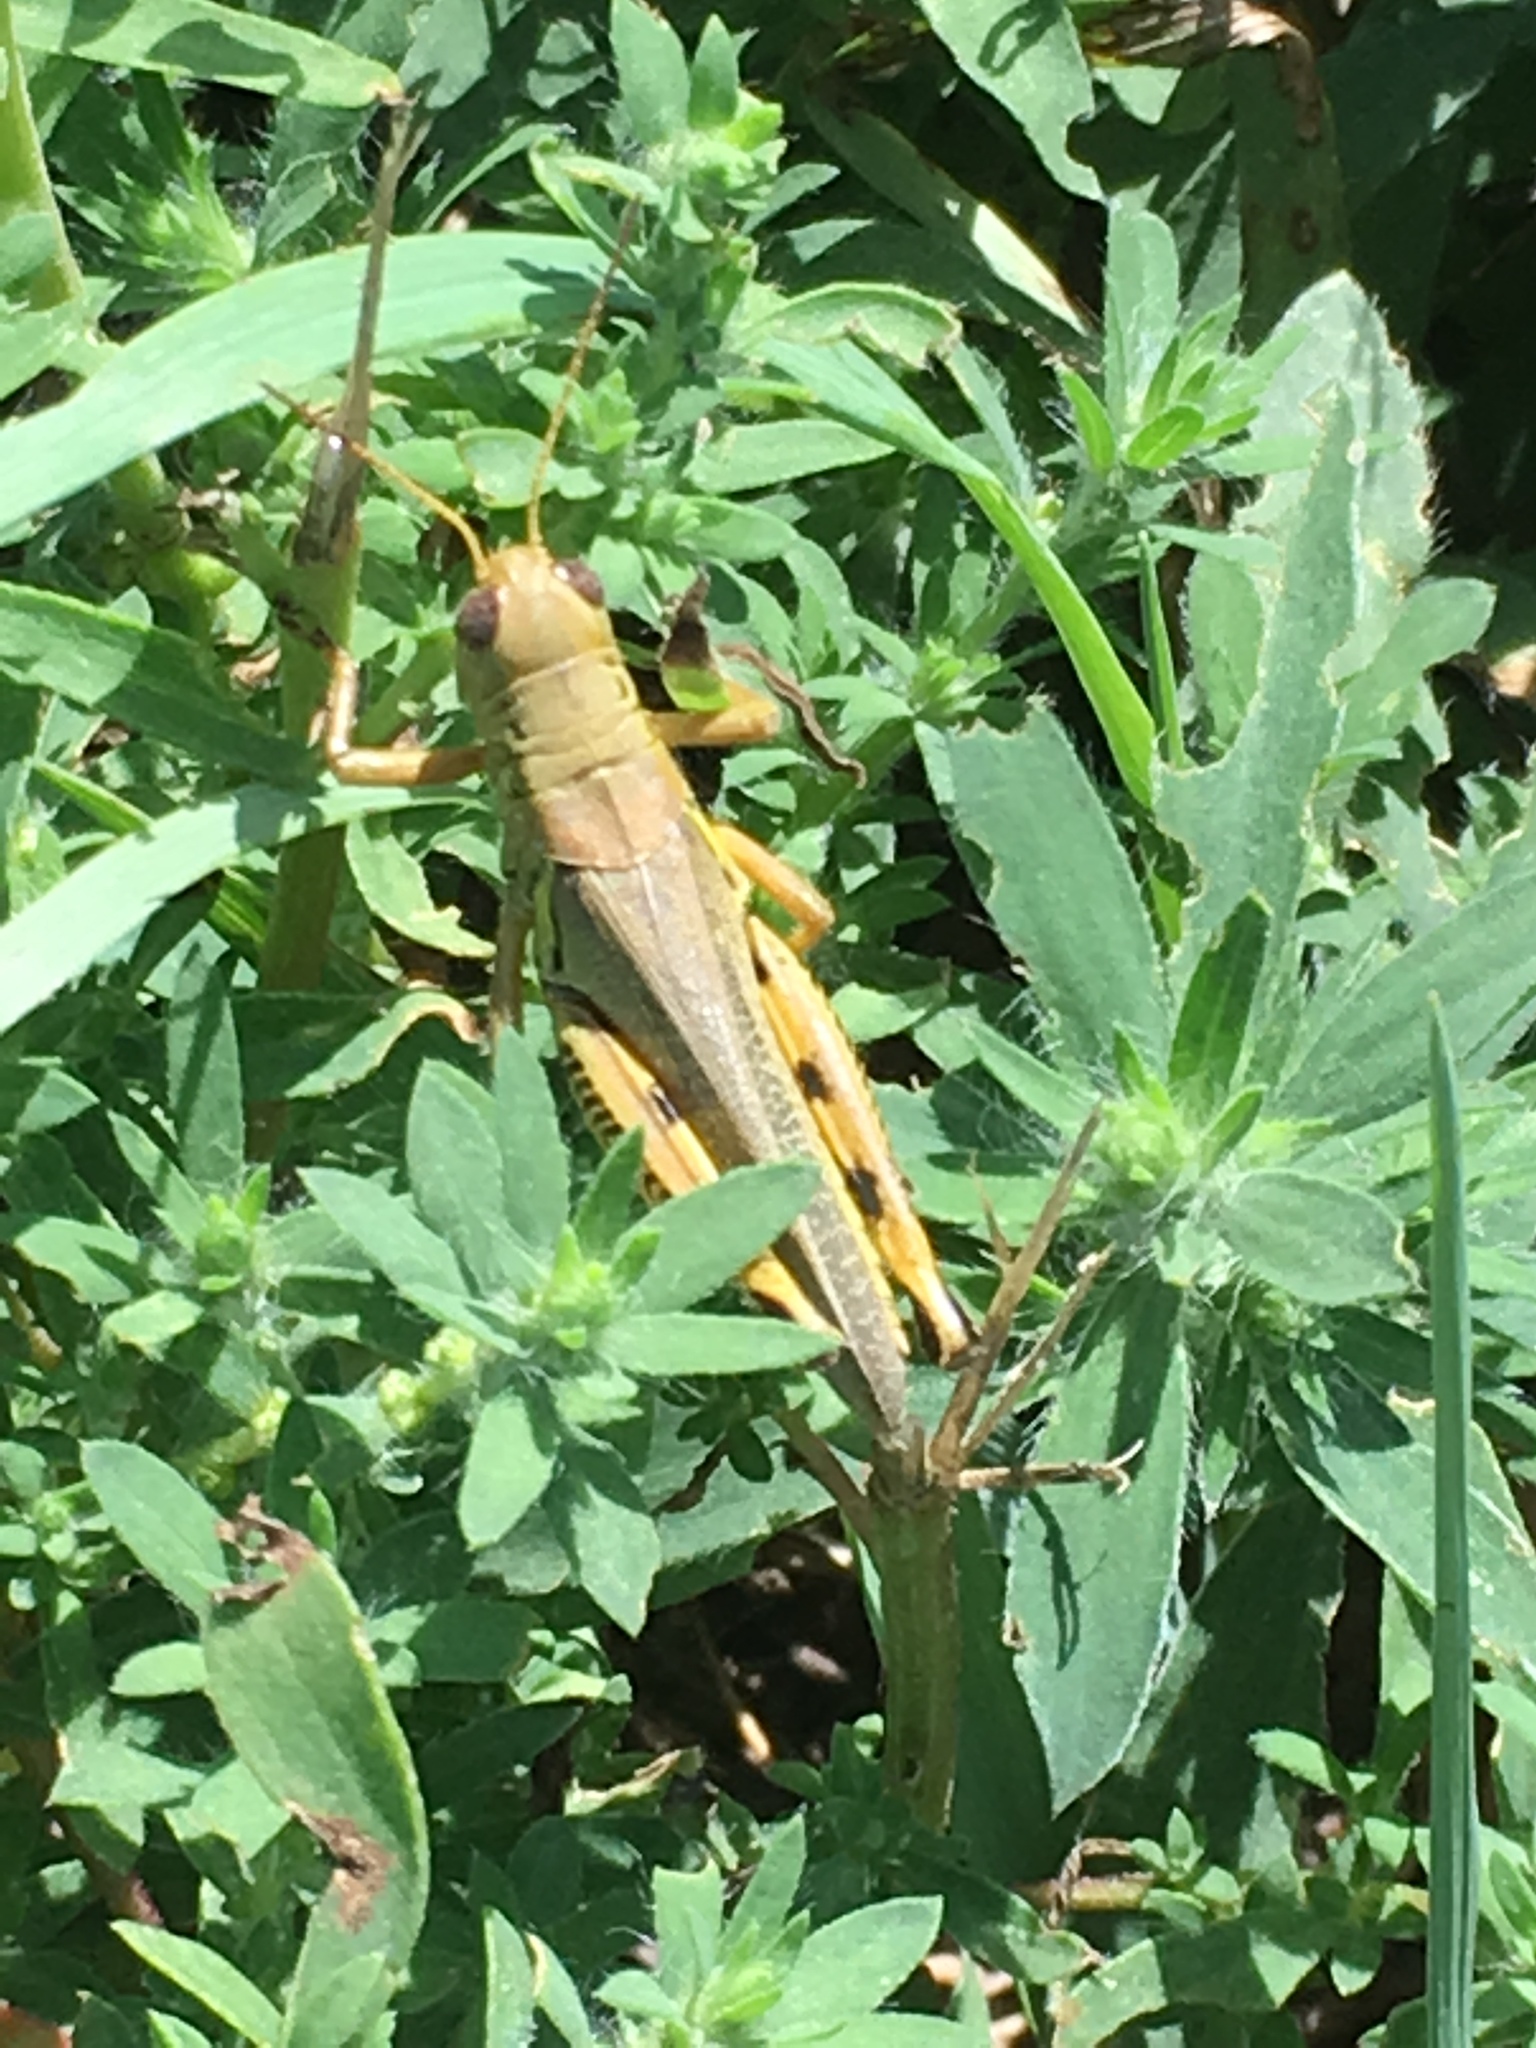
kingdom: Animalia
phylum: Arthropoda
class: Insecta
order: Orthoptera
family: Acrididae
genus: Melanoplus
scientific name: Melanoplus differentialis
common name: Differential grasshopper
